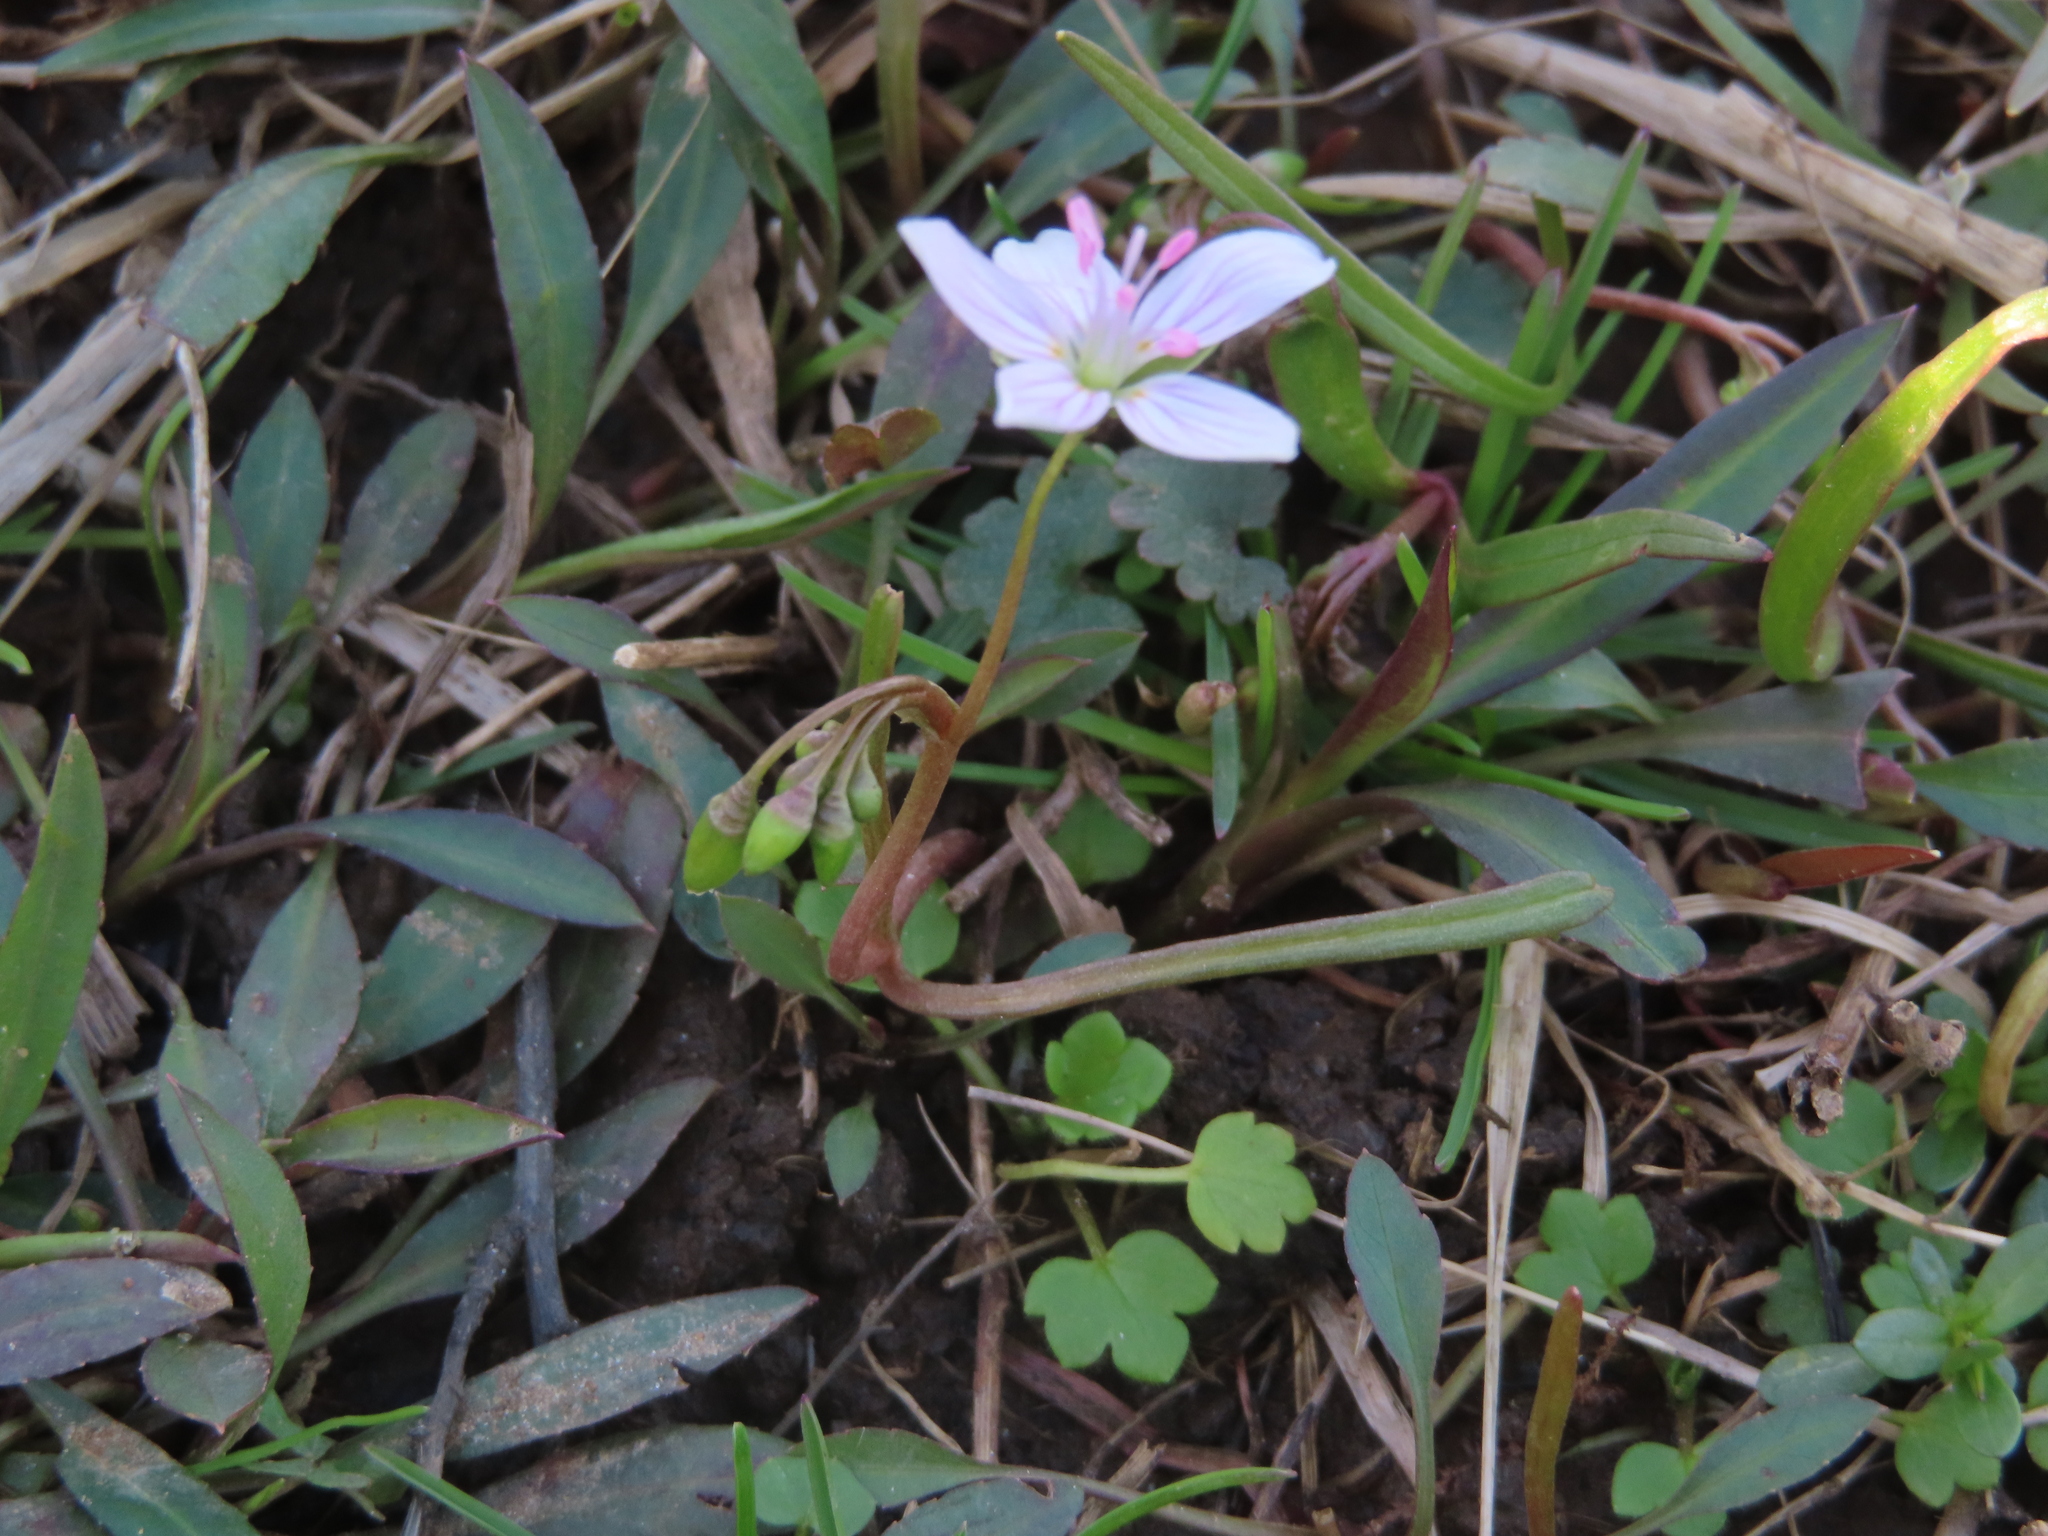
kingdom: Plantae
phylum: Tracheophyta
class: Magnoliopsida
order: Caryophyllales
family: Montiaceae
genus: Claytonia
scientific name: Claytonia virginica
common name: Virginia springbeauty
